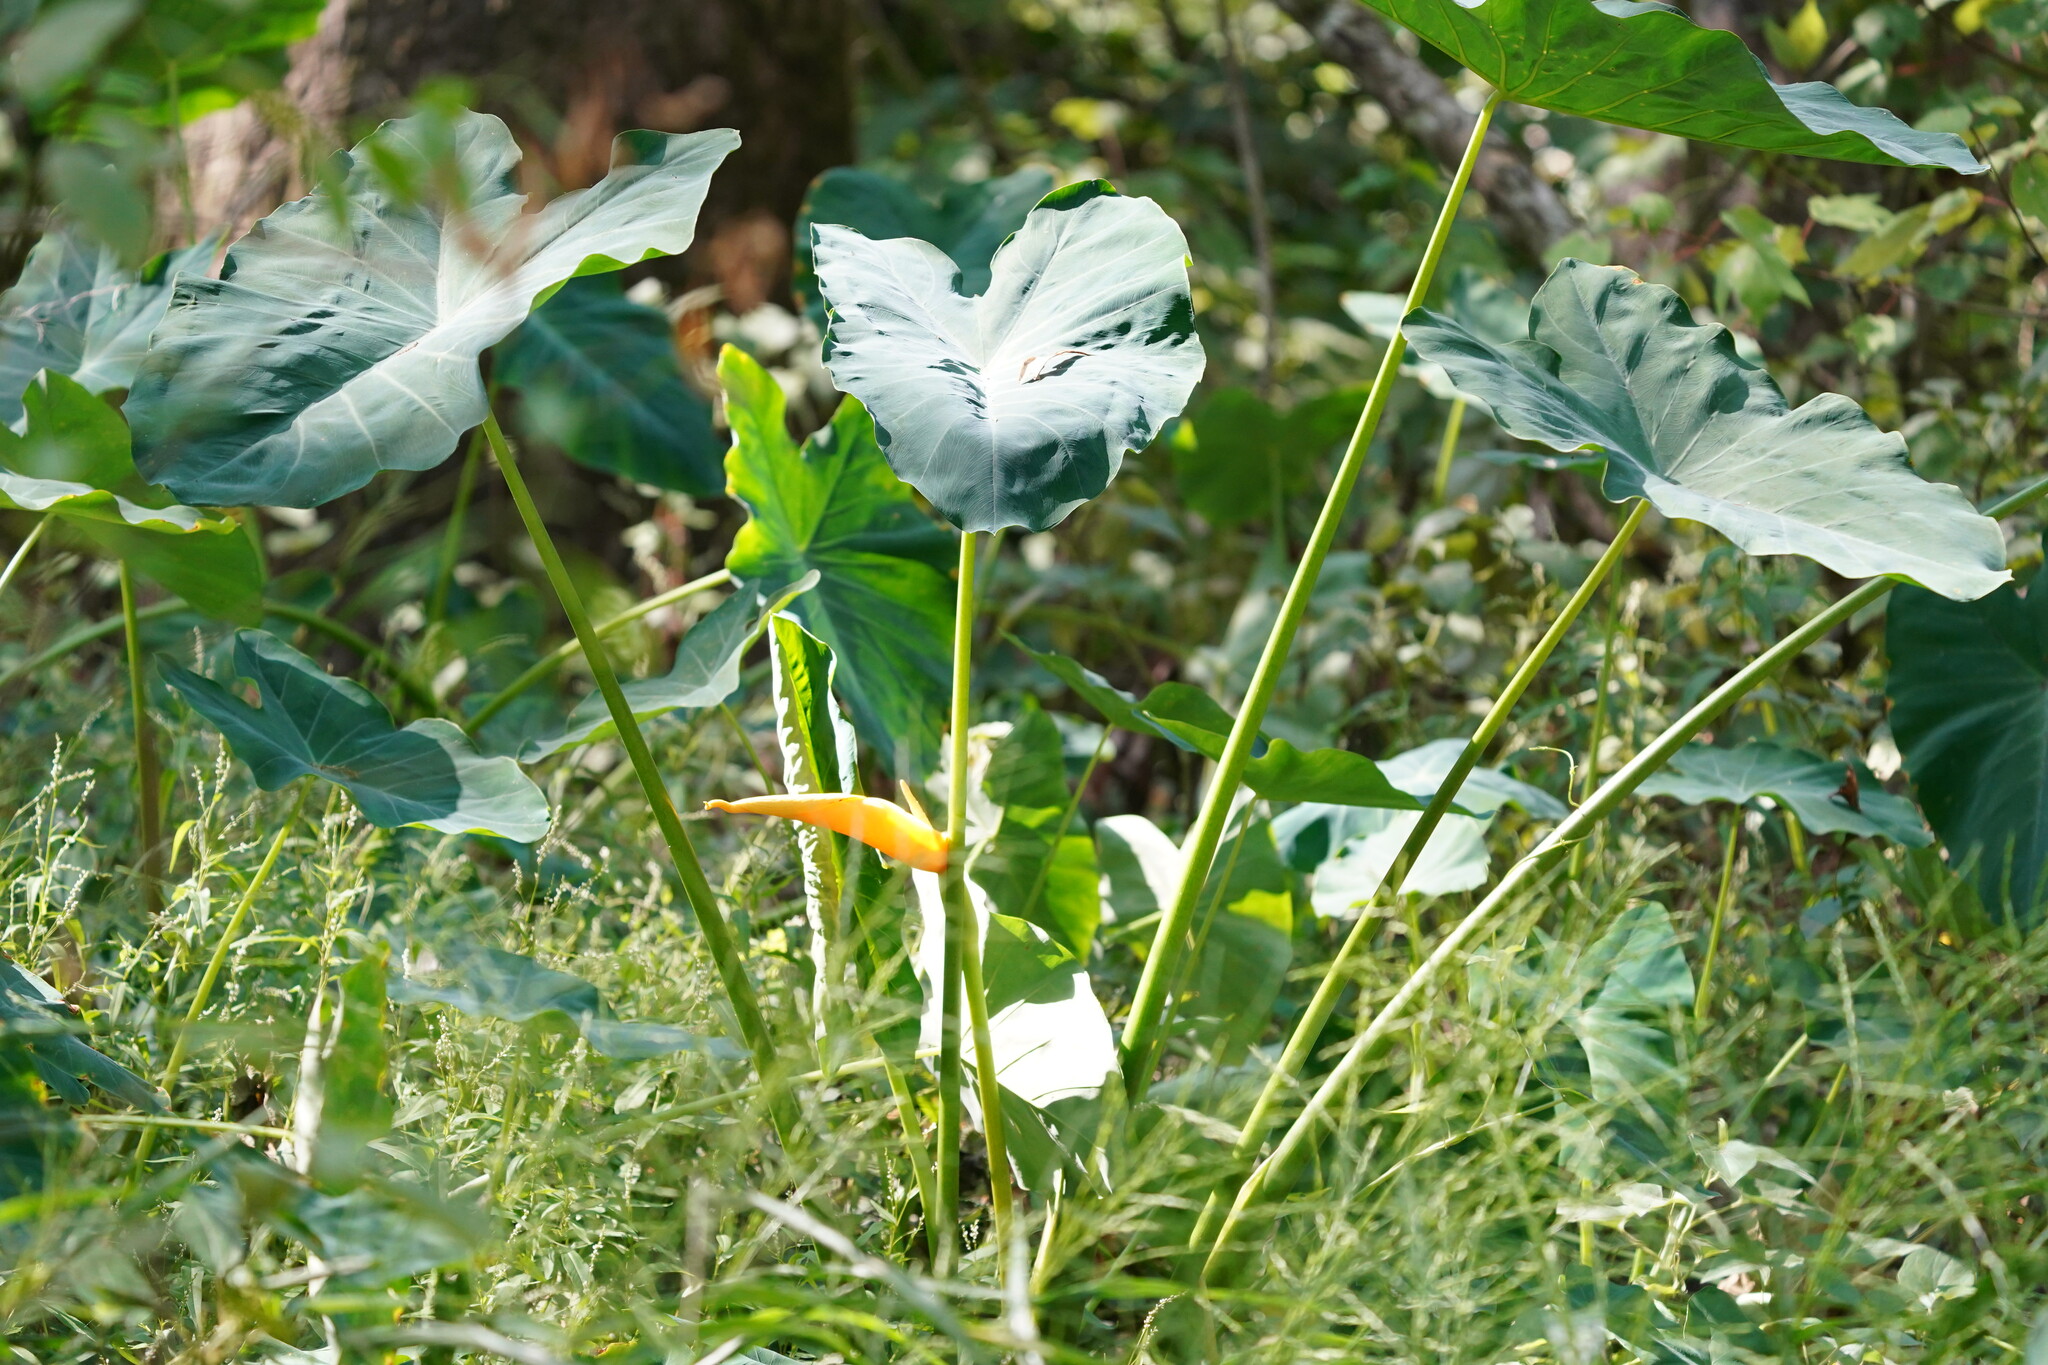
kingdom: Plantae
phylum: Tracheophyta
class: Liliopsida
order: Alismatales
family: Araceae
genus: Colocasia
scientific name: Colocasia esculenta
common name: Taro
